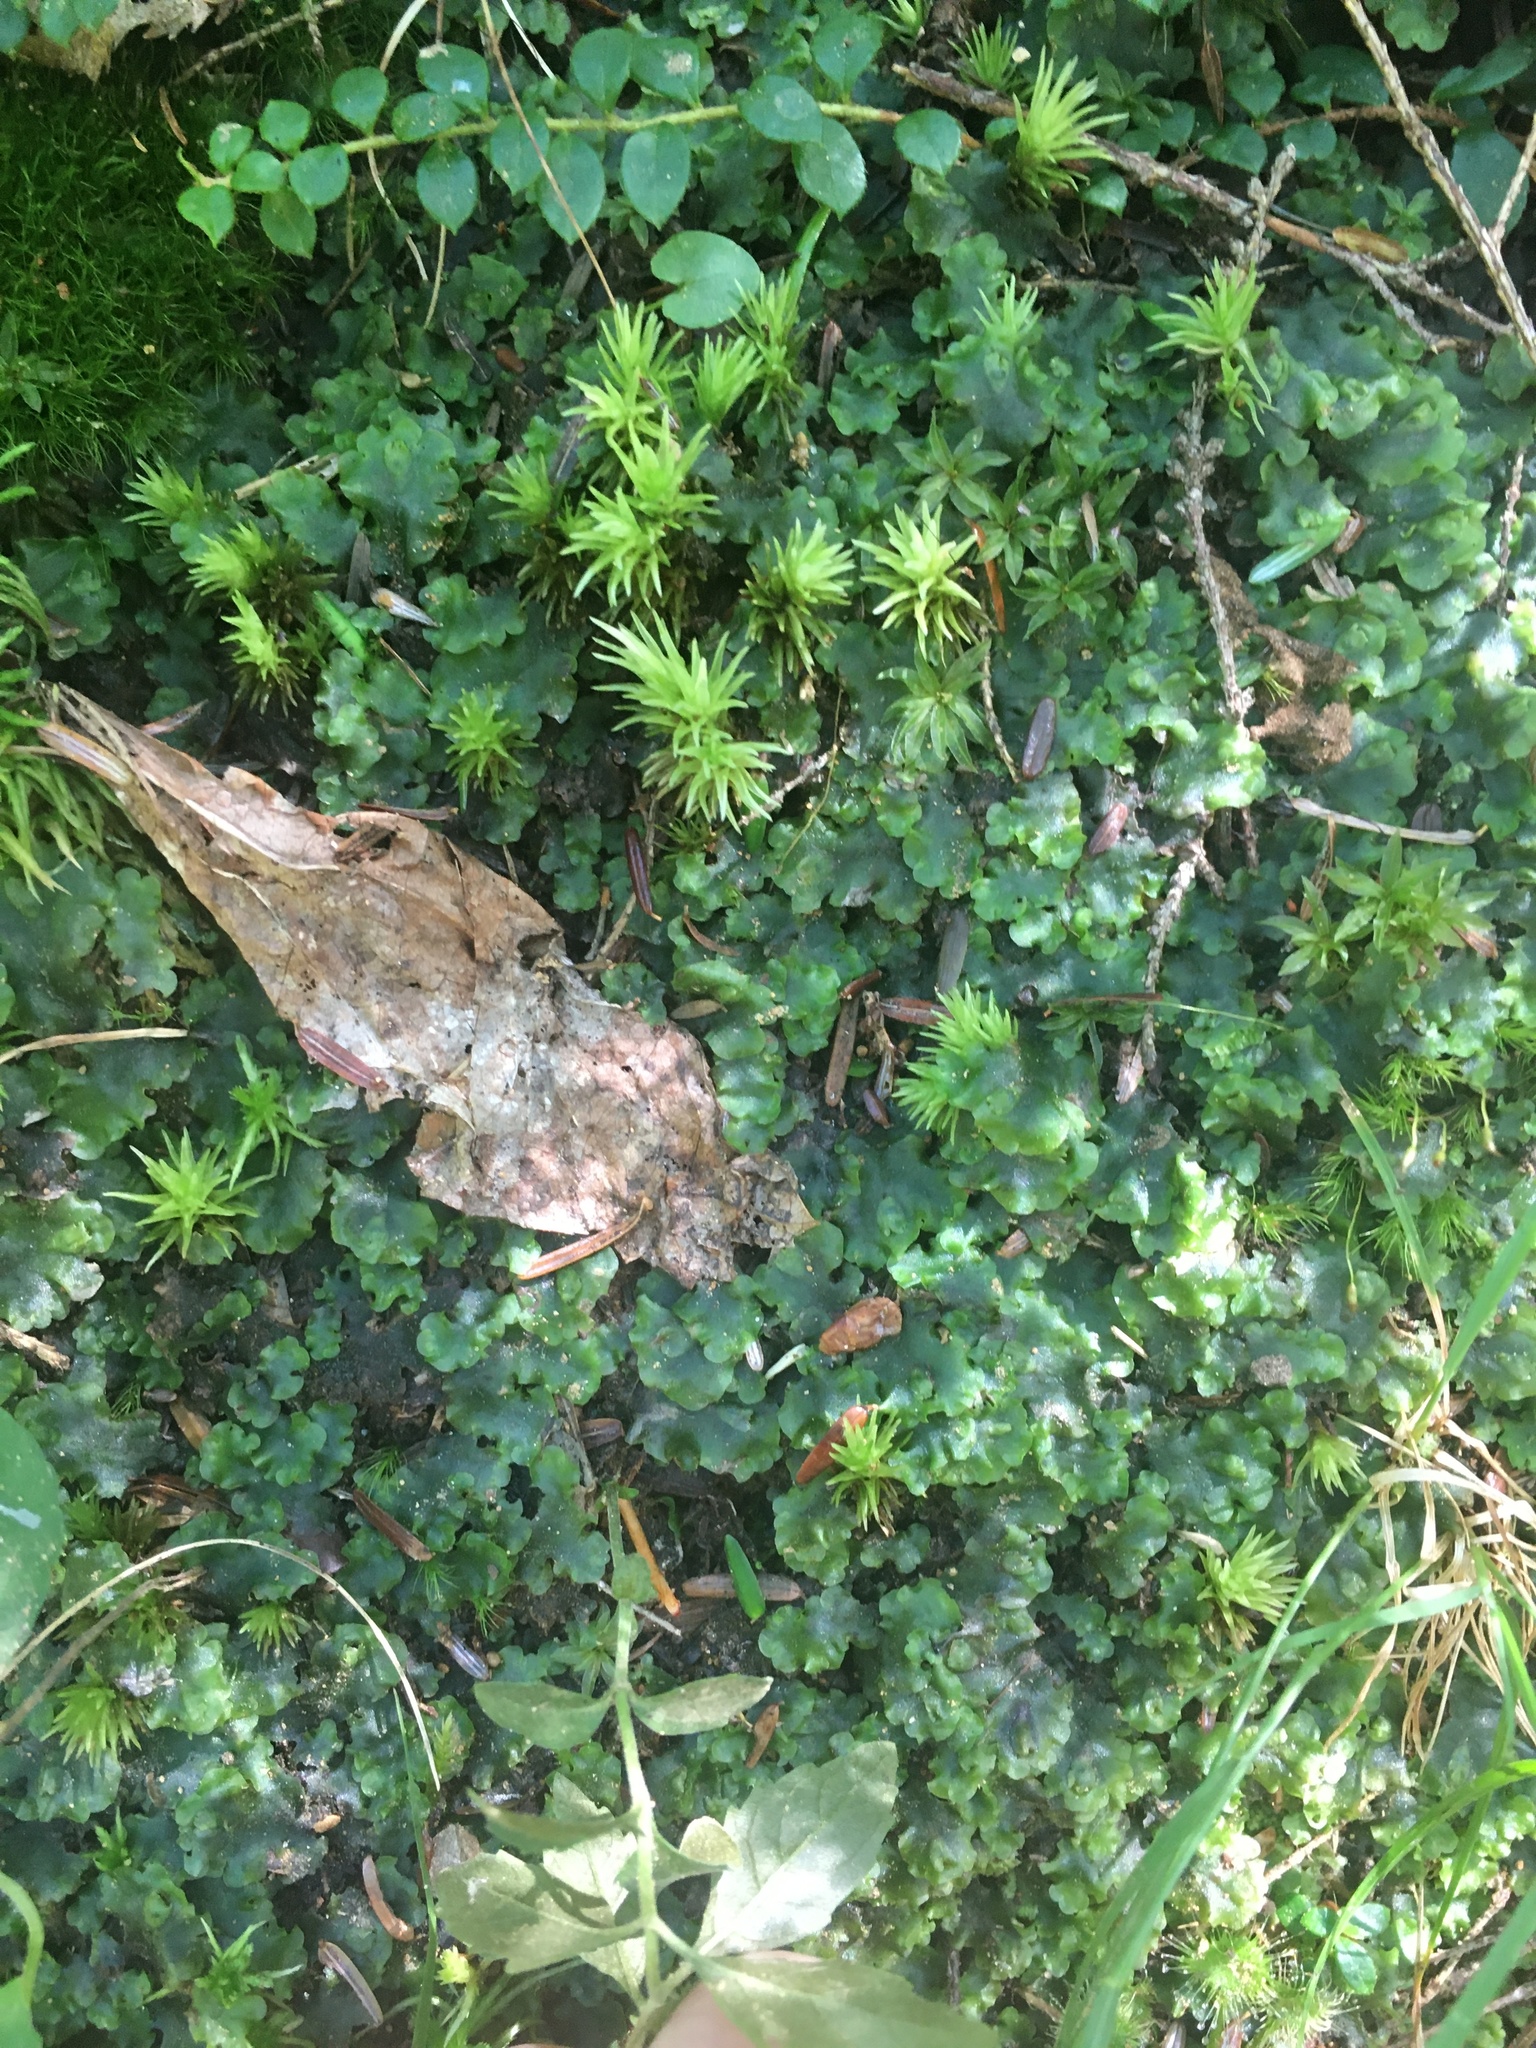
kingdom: Plantae
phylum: Marchantiophyta
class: Jungermanniopsida
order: Pelliales
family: Pelliaceae
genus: Pellia
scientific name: Pellia epiphylla
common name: Common pellia
